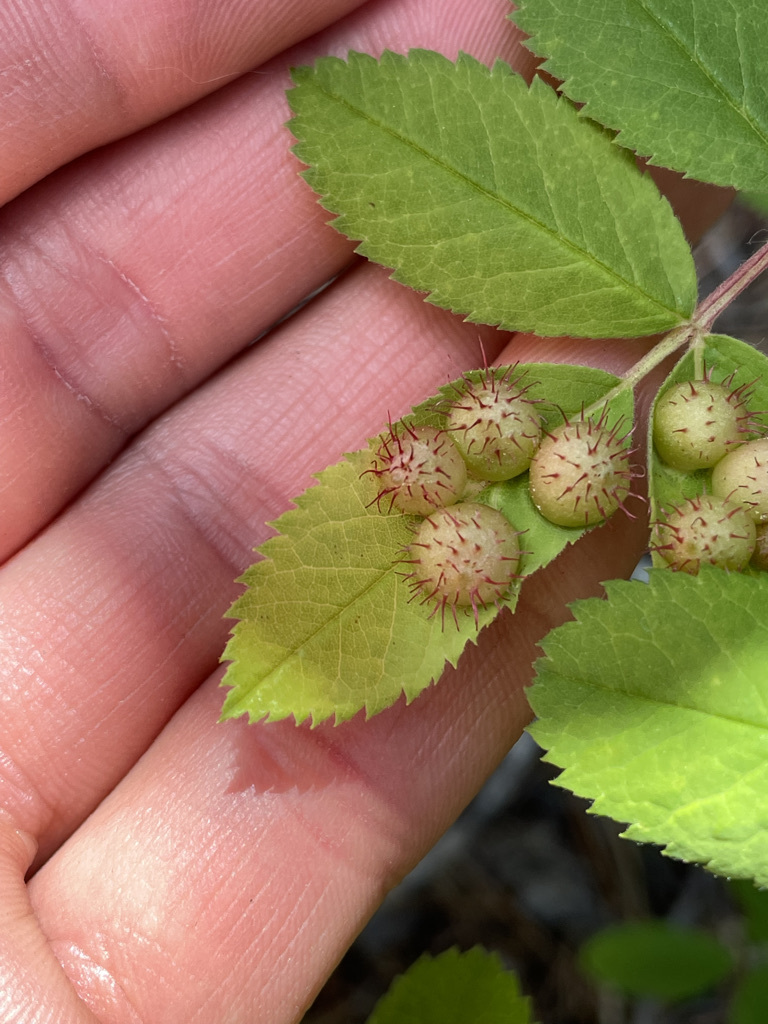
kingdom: Animalia
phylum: Arthropoda
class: Insecta
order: Hymenoptera
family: Cynipidae
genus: Diplolepis
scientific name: Diplolepis polita
